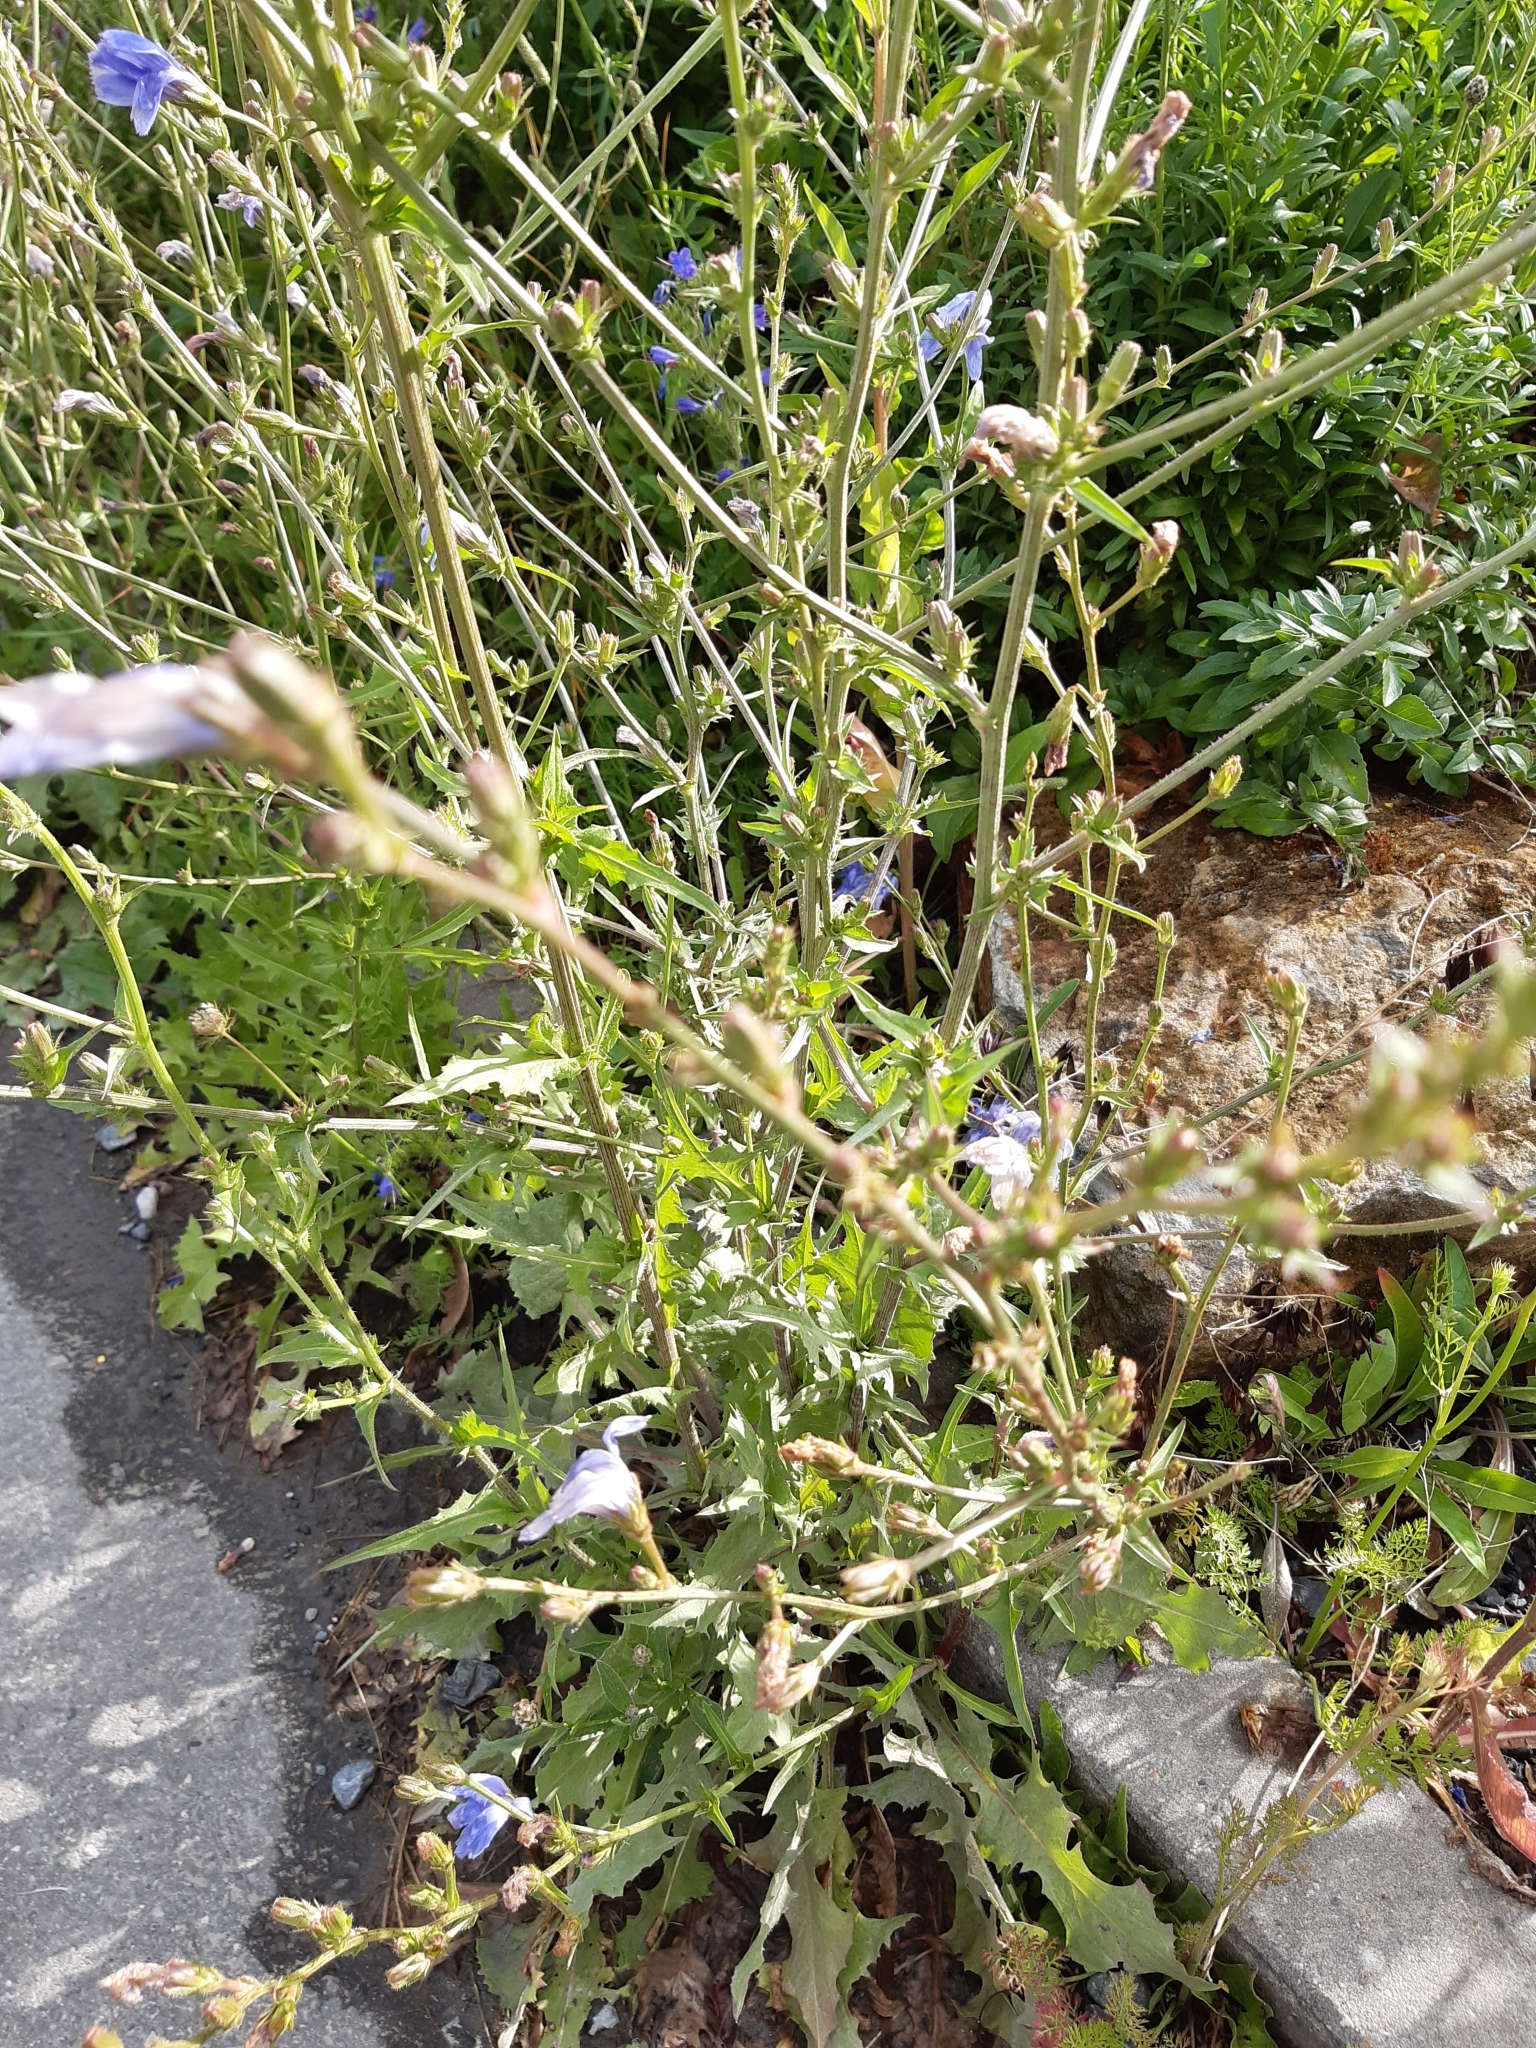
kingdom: Plantae
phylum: Tracheophyta
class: Magnoliopsida
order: Asterales
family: Asteraceae
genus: Cichorium
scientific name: Cichorium intybus
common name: Chicory
